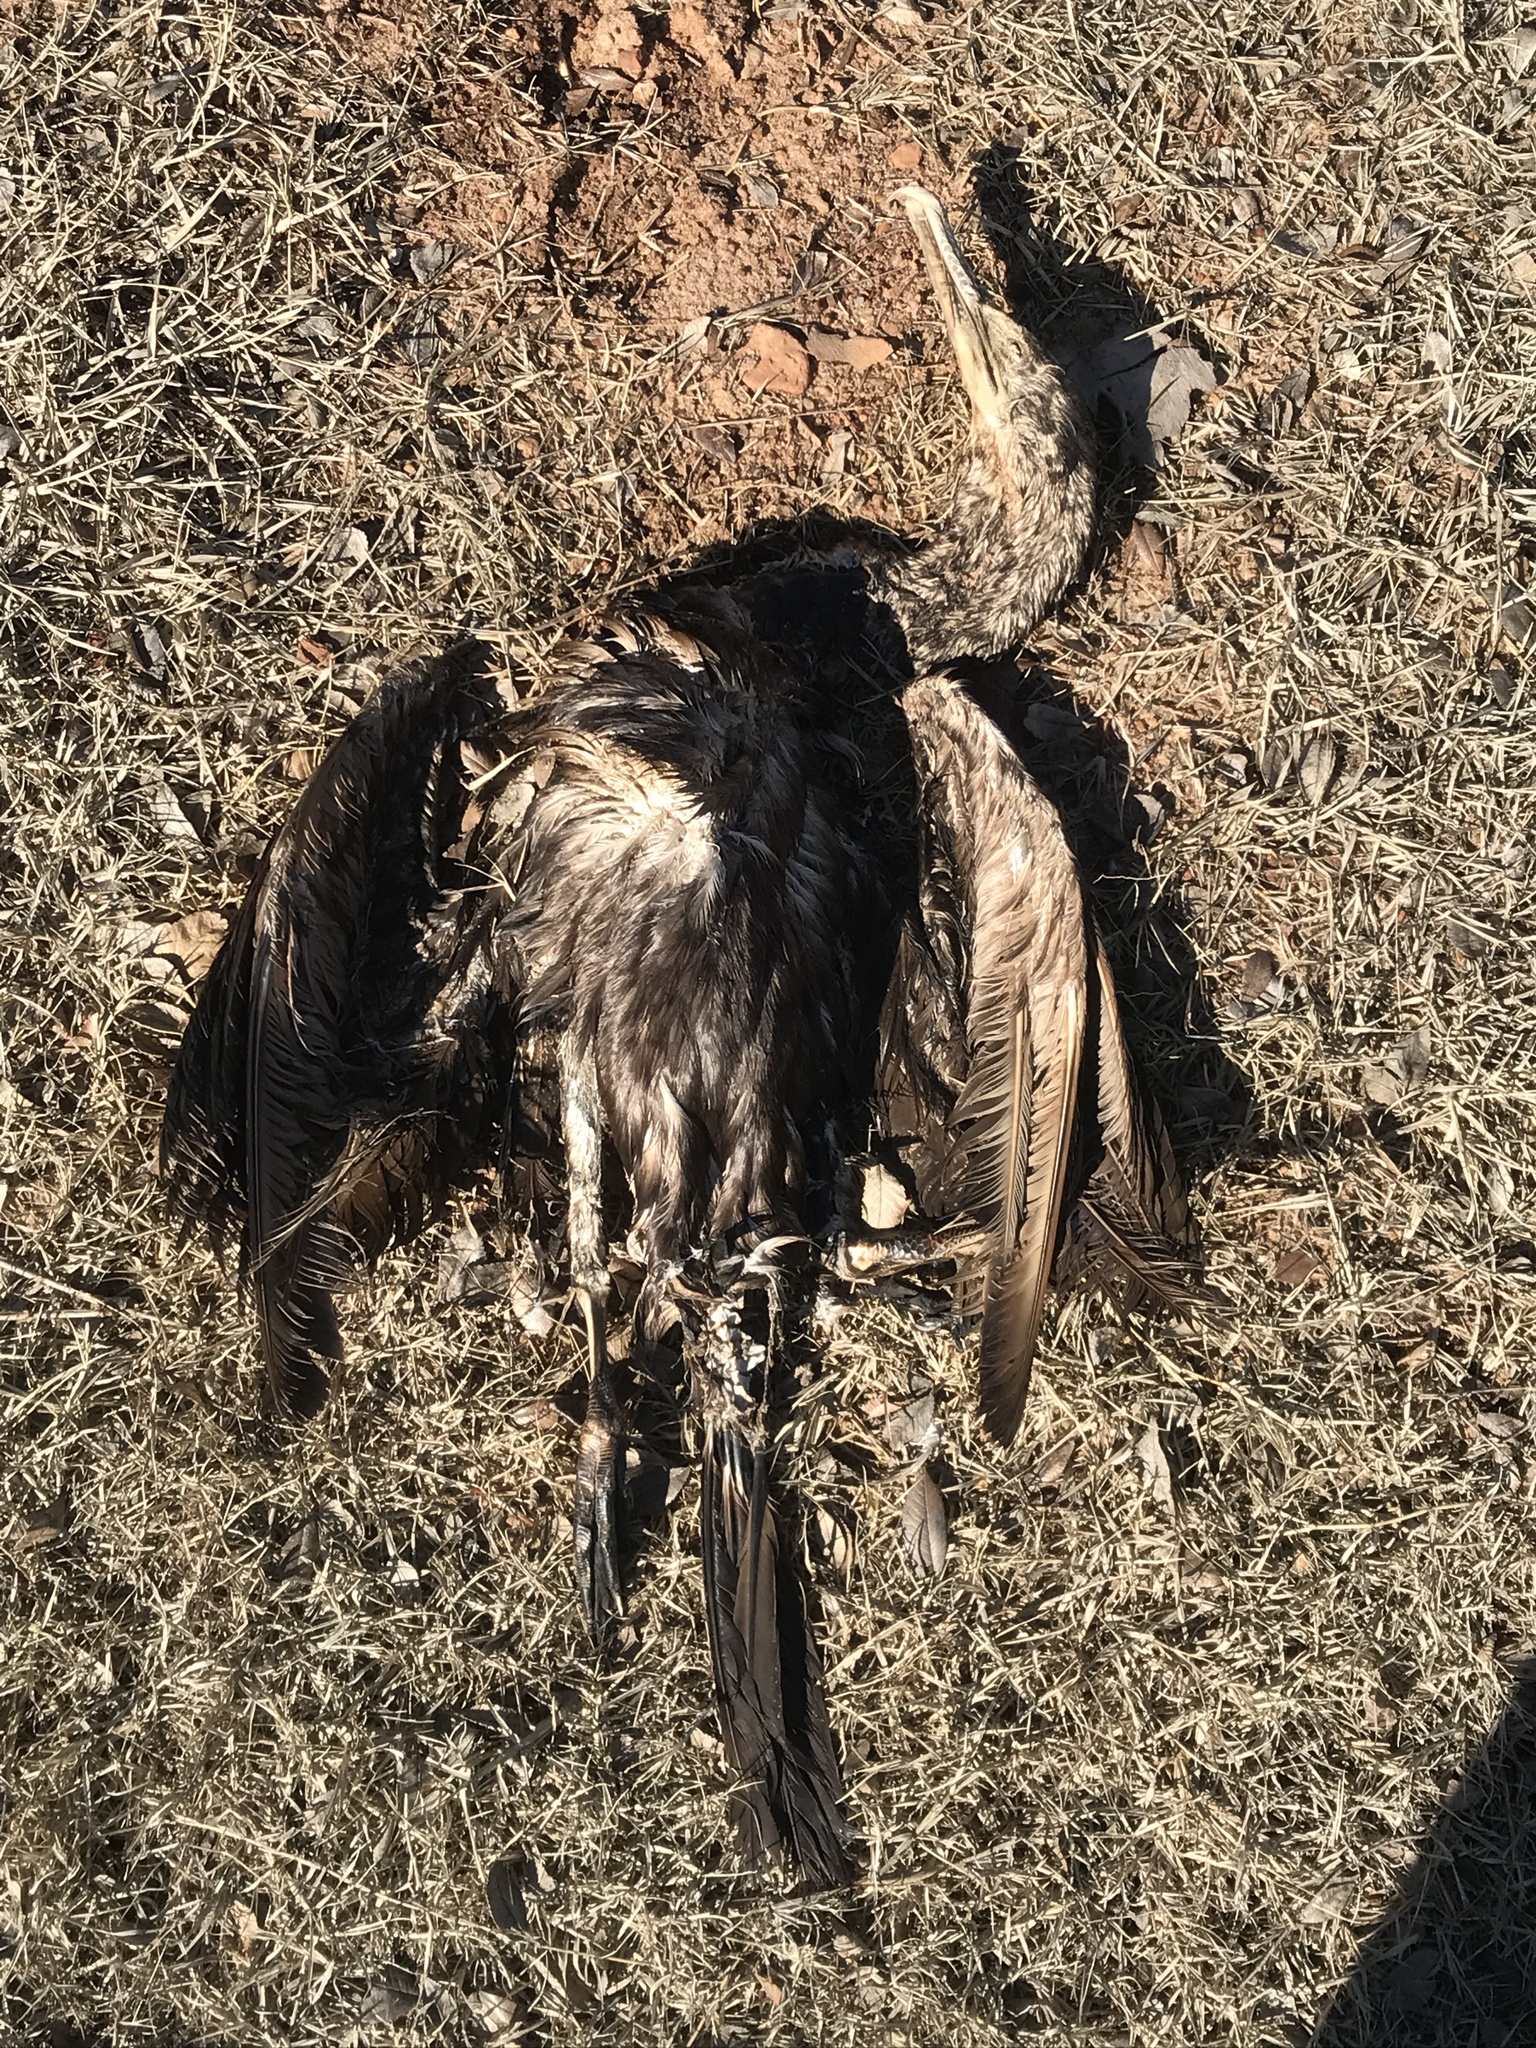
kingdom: Animalia
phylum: Chordata
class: Aves
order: Suliformes
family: Phalacrocoracidae
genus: Phalacrocorax
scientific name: Phalacrocorax auritus
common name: Double-crested cormorant
